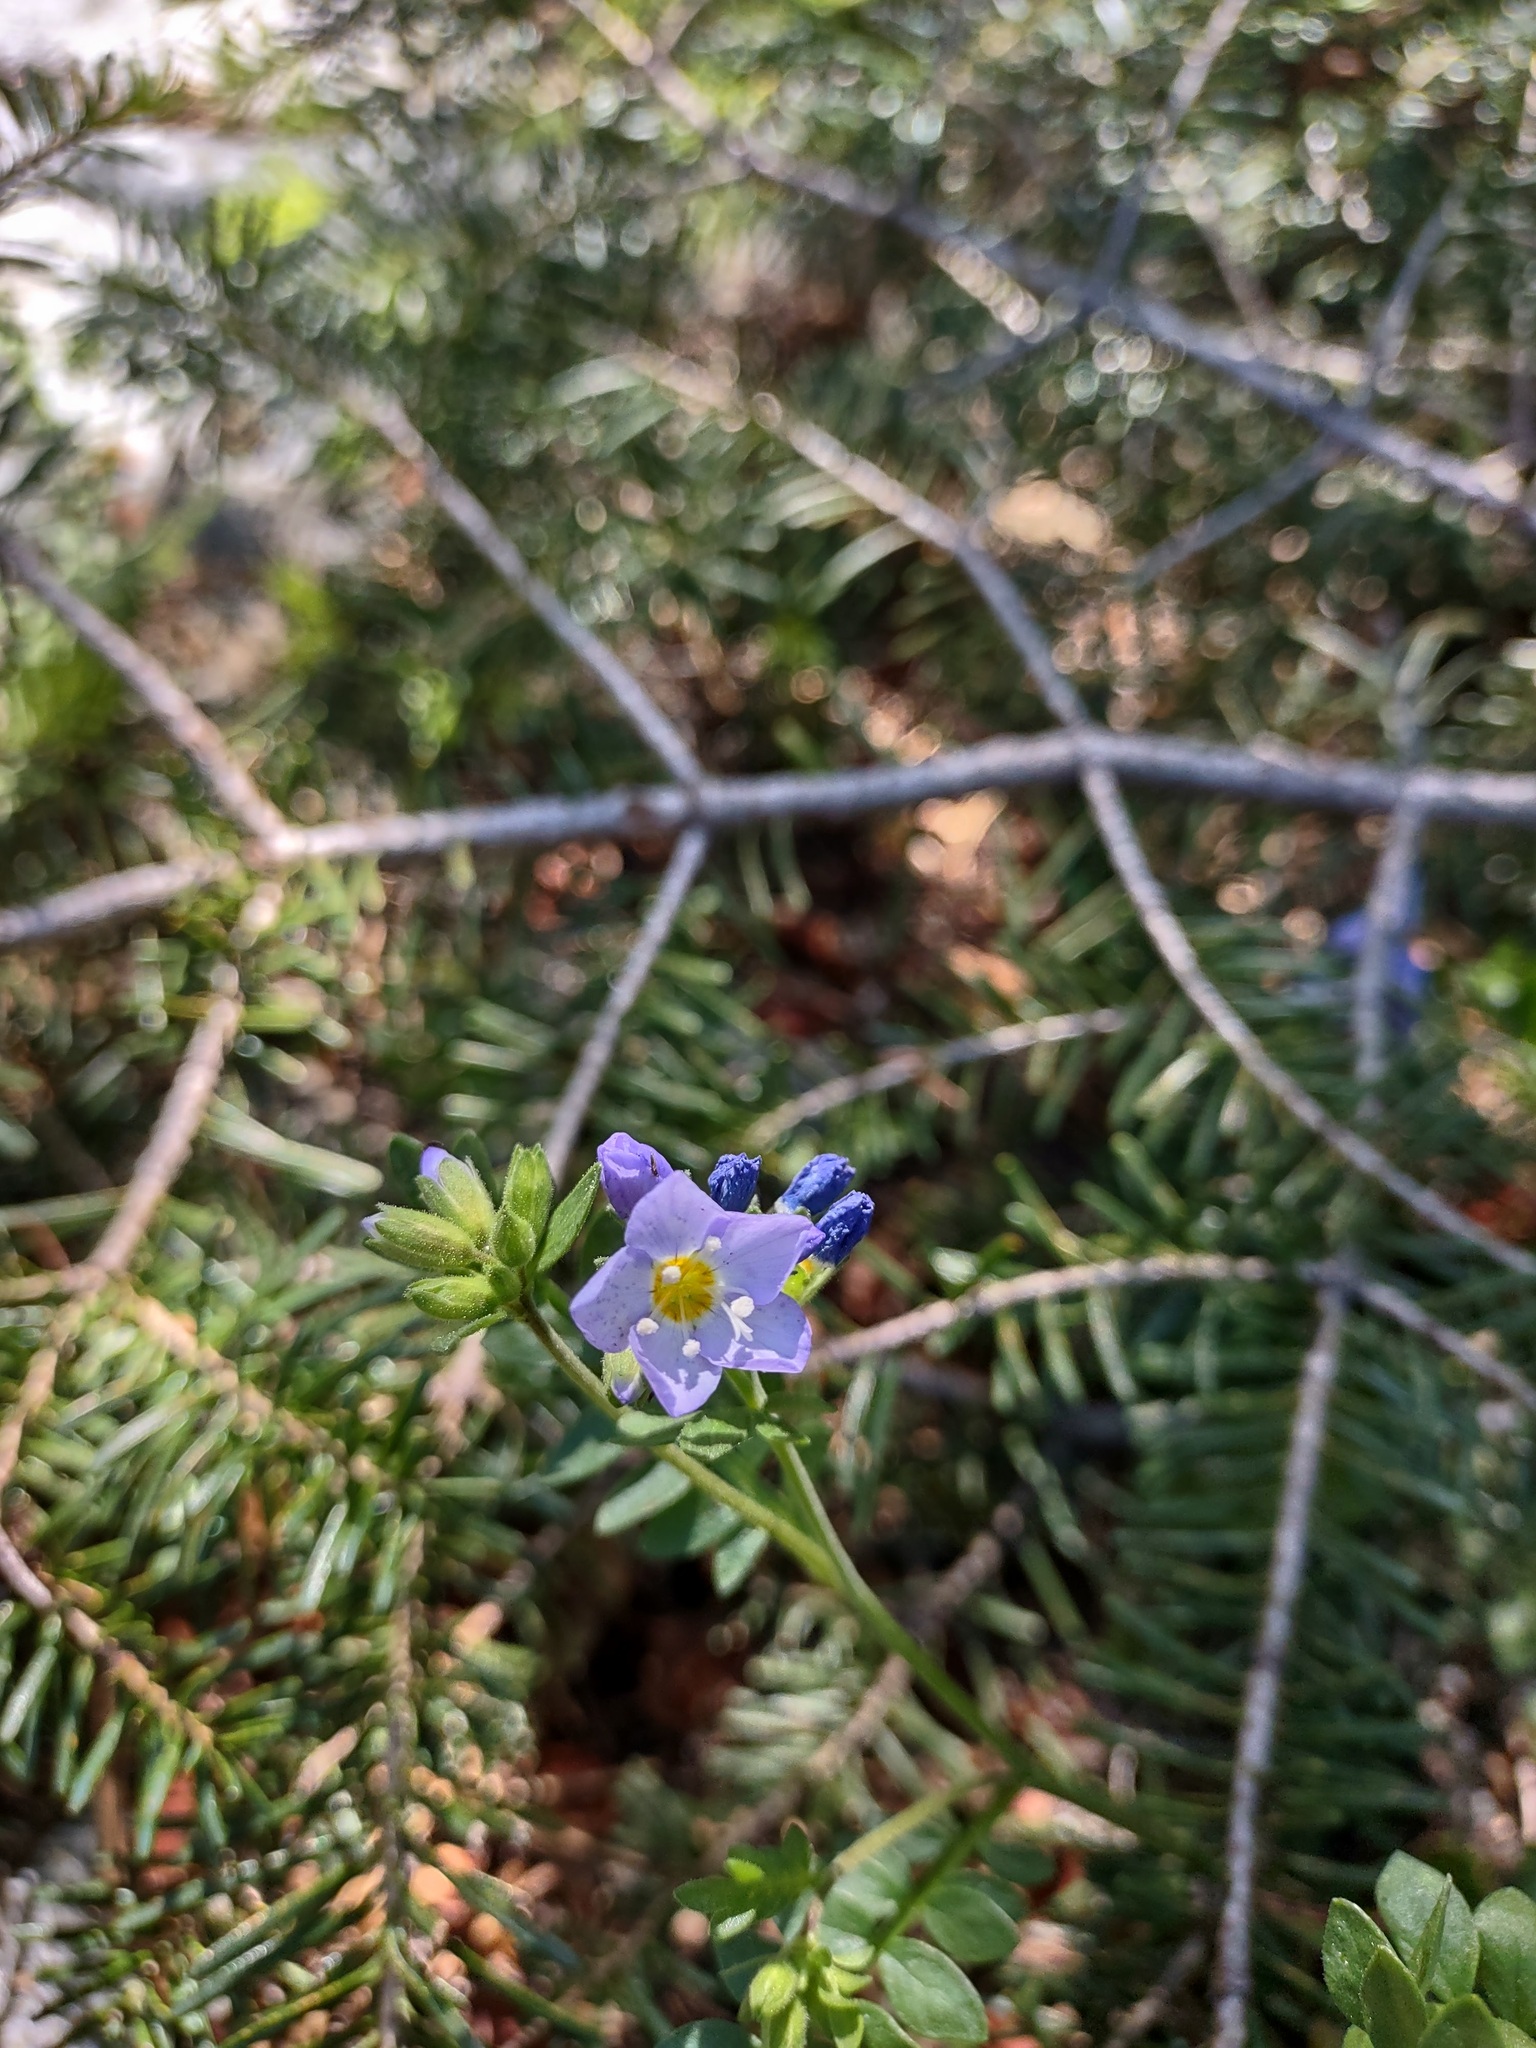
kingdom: Plantae
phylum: Tracheophyta
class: Magnoliopsida
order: Ericales
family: Polemoniaceae
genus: Polemonium
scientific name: Polemonium pulcherrimum
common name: Short jacob's-ladder
